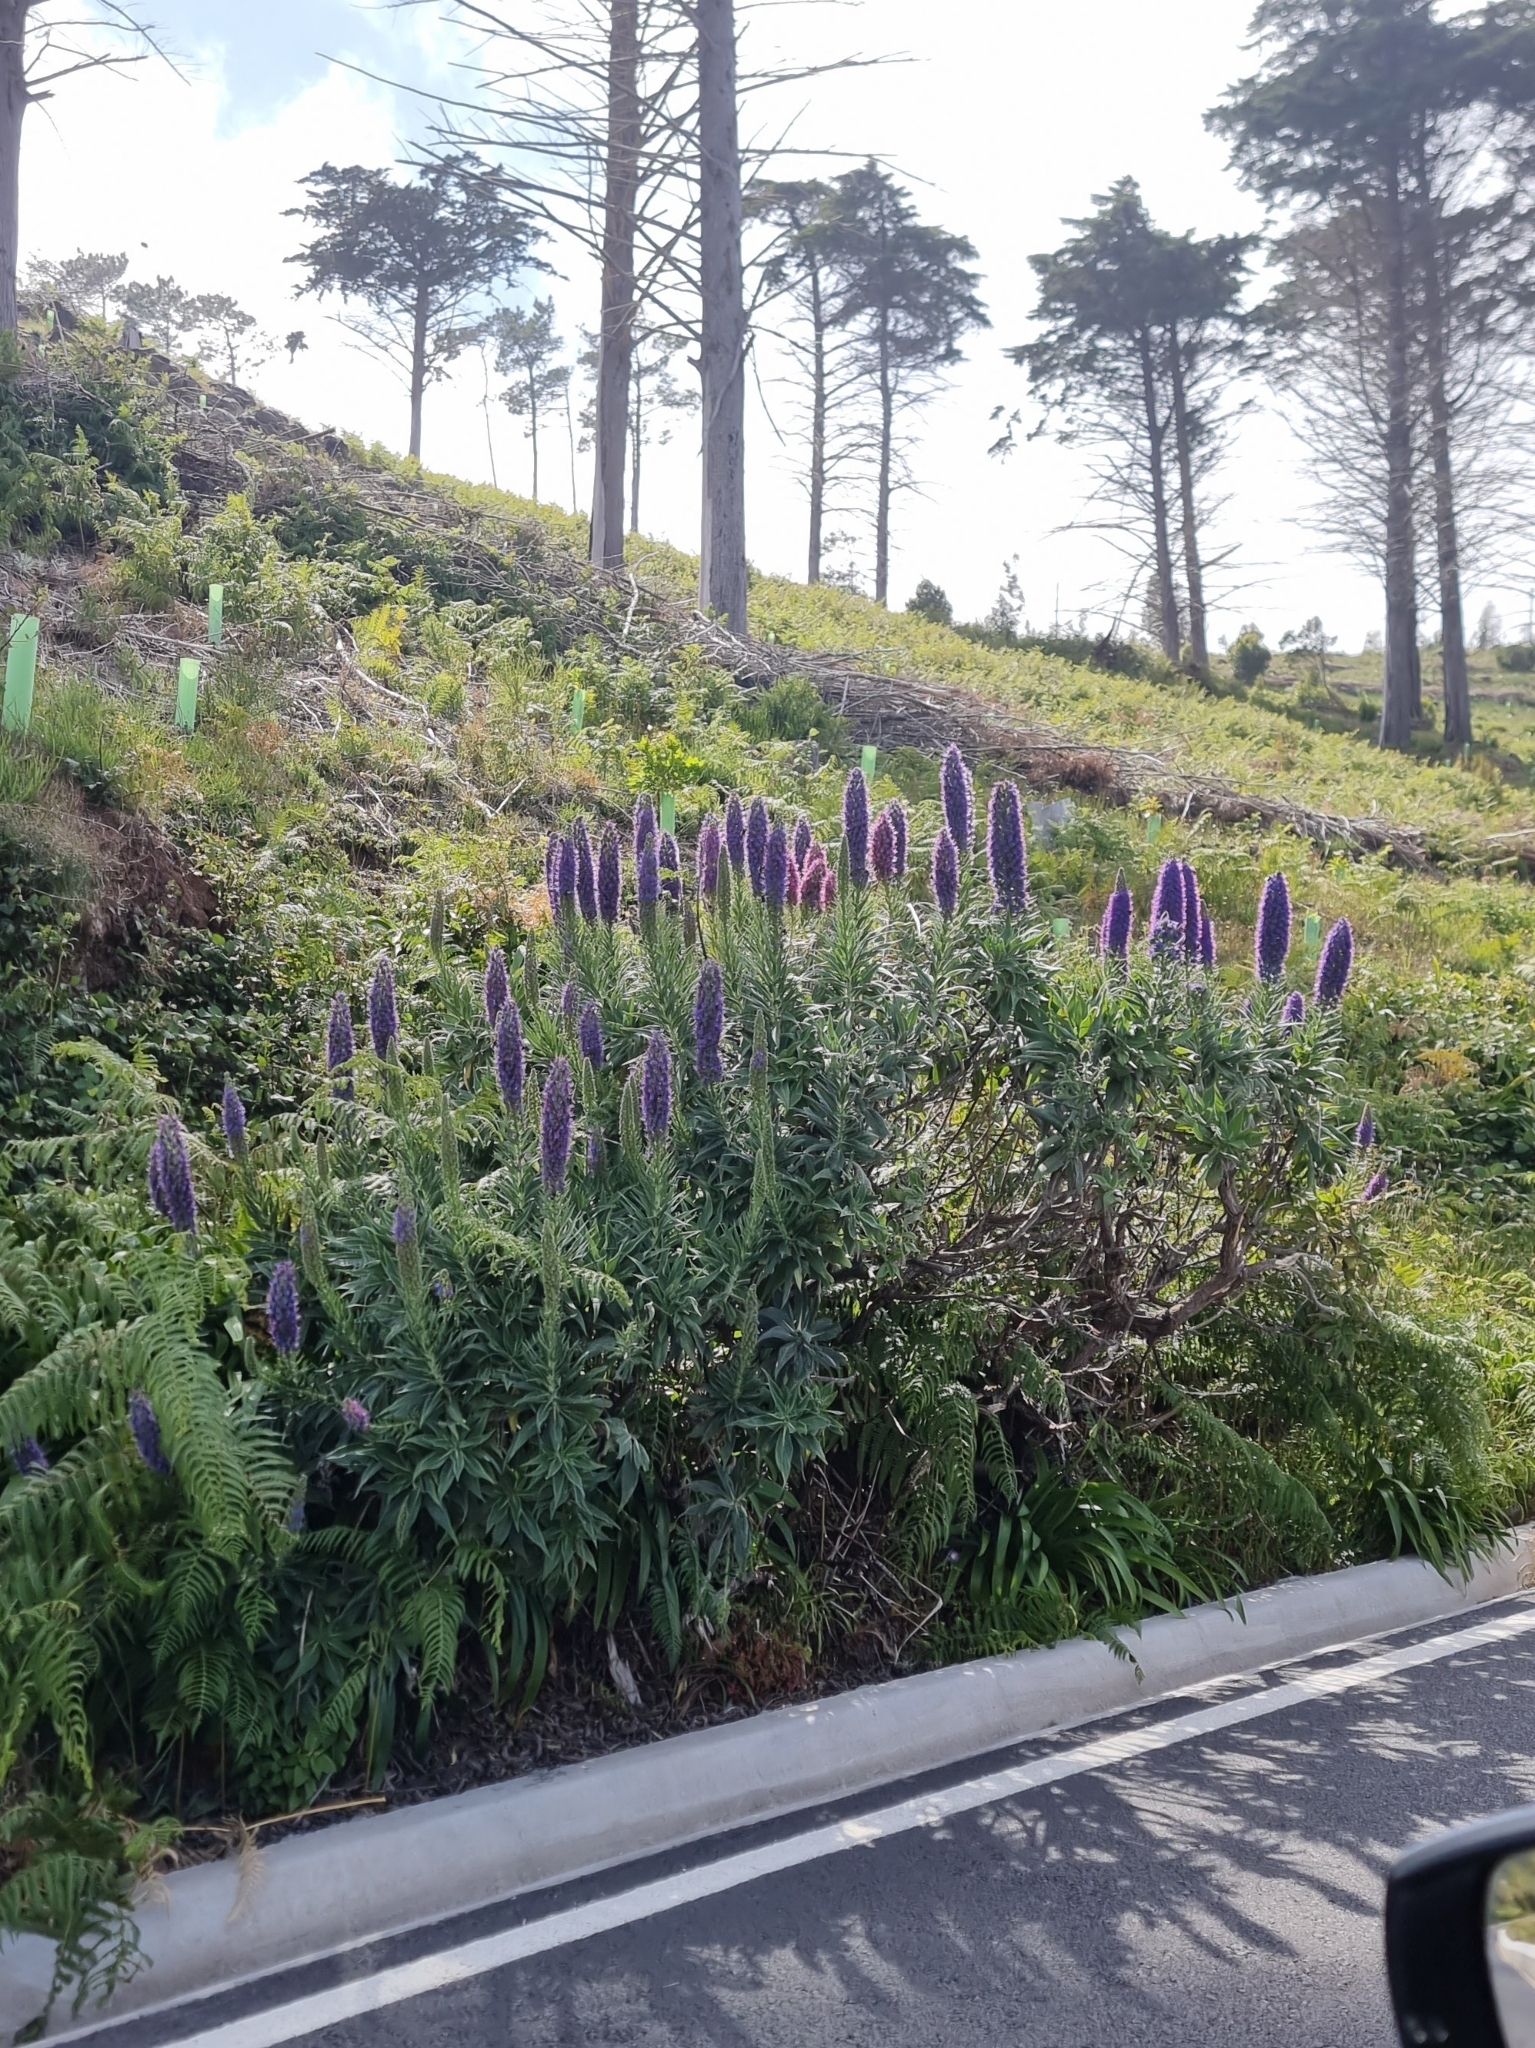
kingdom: Plantae
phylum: Tracheophyta
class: Magnoliopsida
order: Boraginales
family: Boraginaceae
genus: Echium
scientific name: Echium candicans
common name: Pride of madeira
